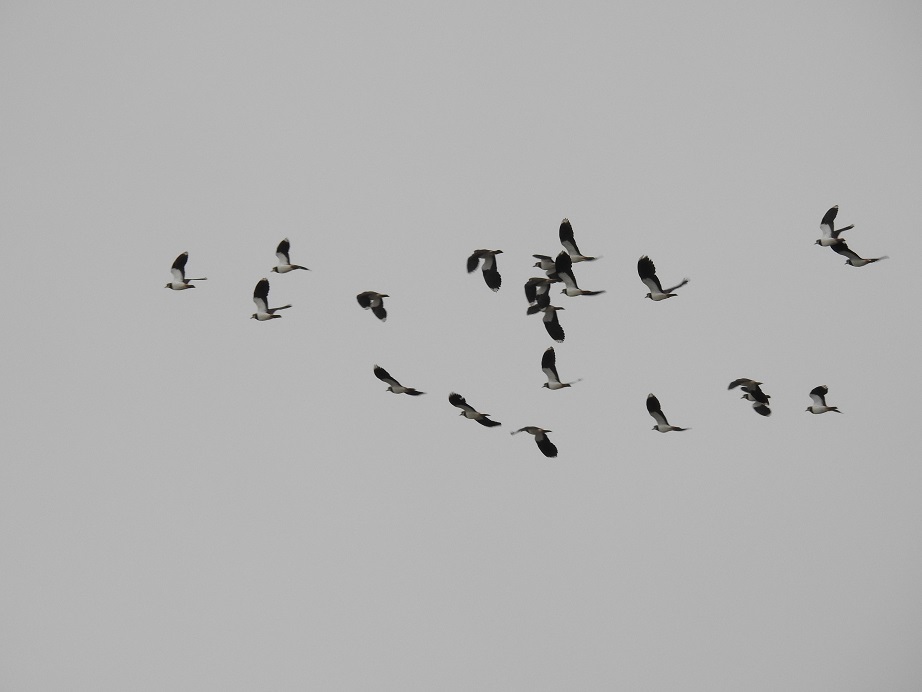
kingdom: Animalia
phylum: Chordata
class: Aves
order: Charadriiformes
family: Charadriidae
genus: Vanellus
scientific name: Vanellus vanellus
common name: Northern lapwing
